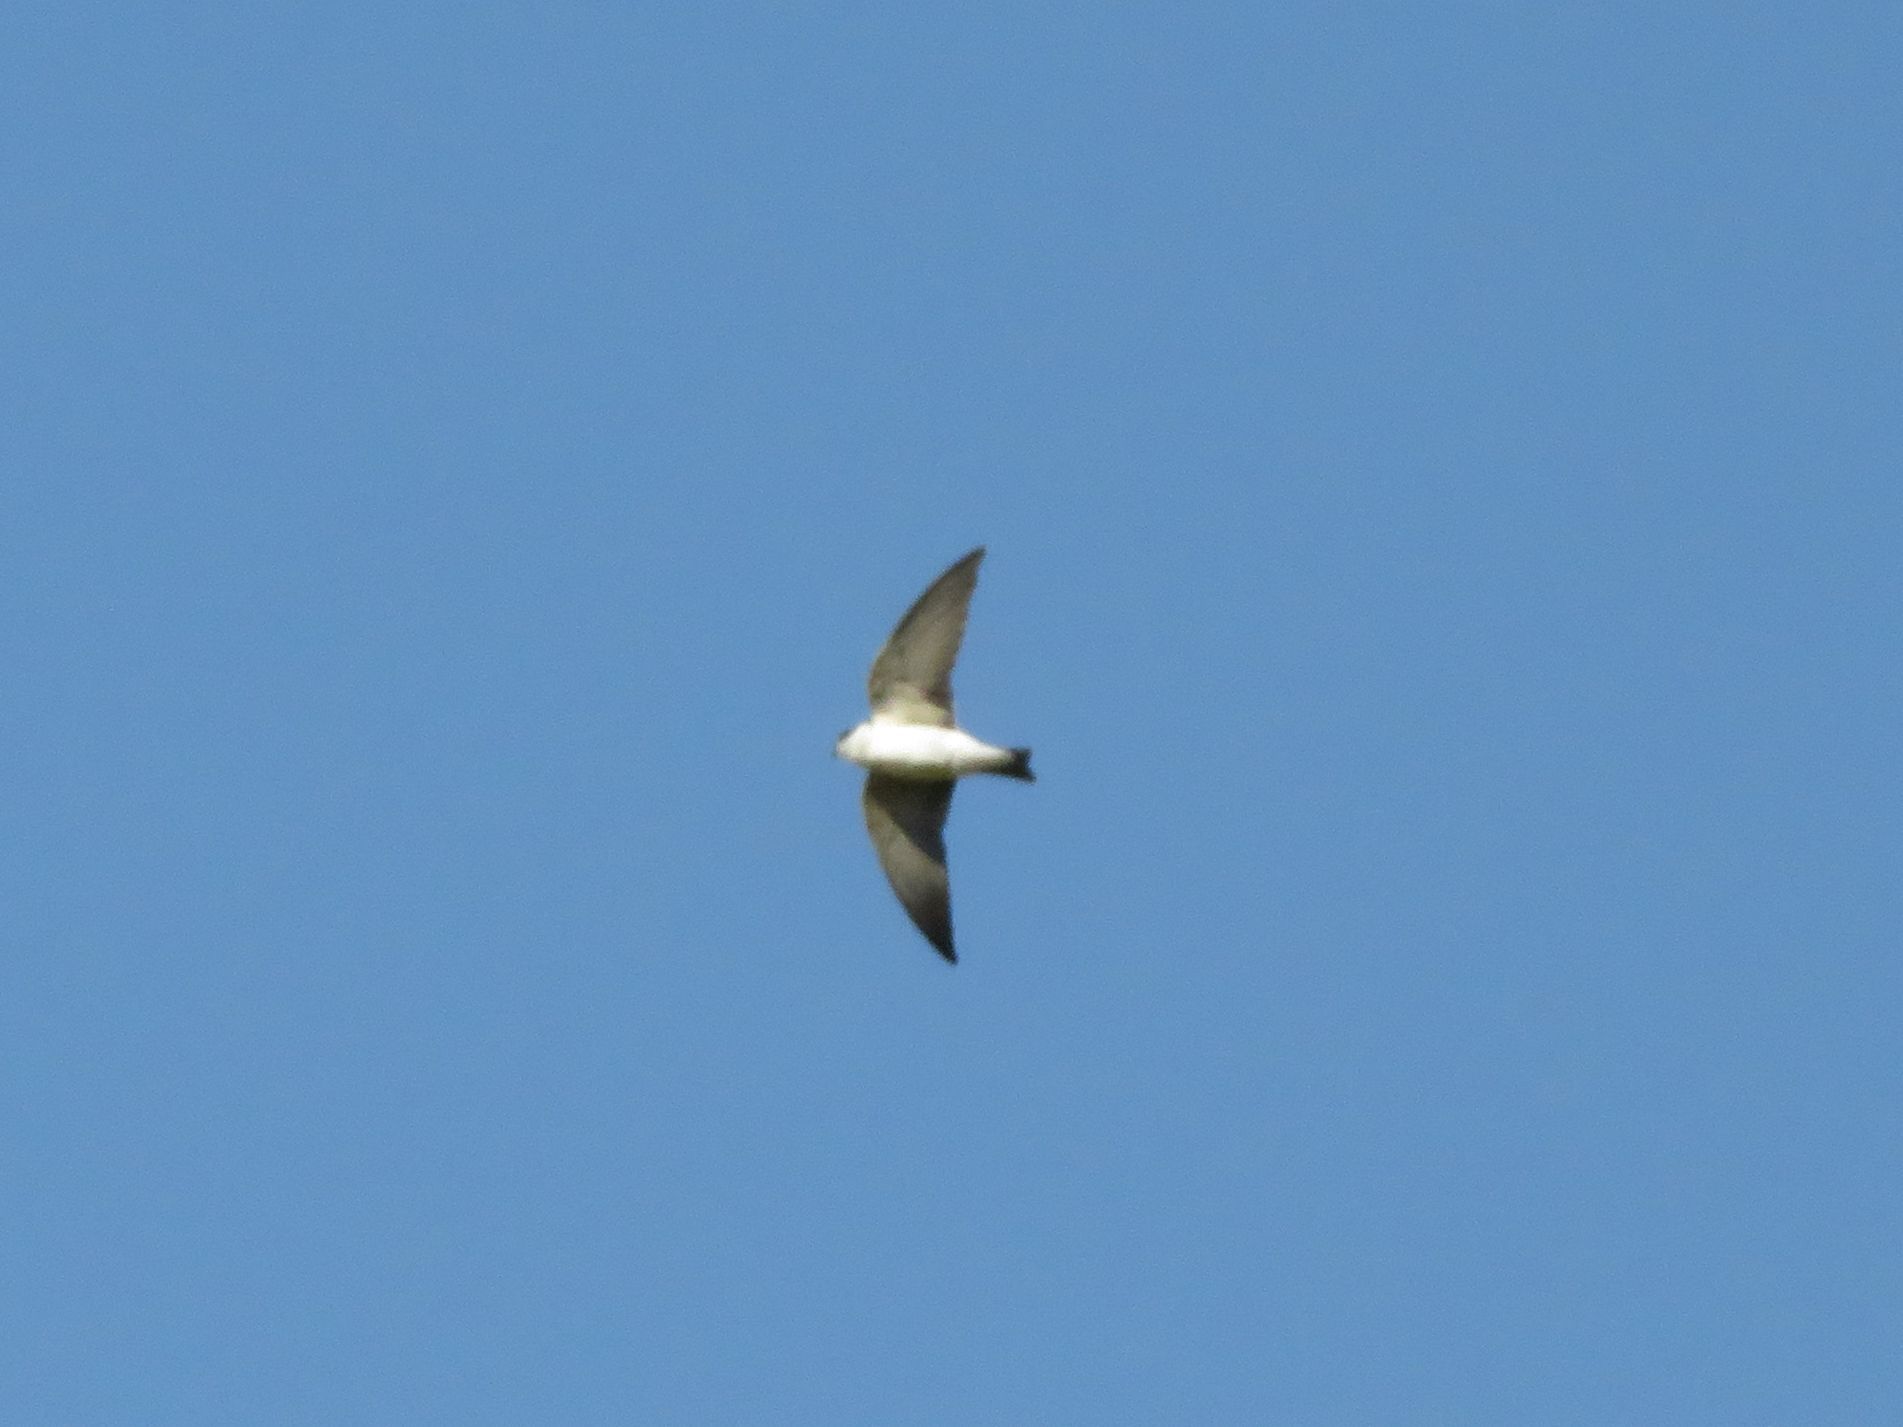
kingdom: Animalia
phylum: Chordata
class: Aves
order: Passeriformes
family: Hirundinidae
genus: Tachycineta
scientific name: Tachycineta leucopyga
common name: Chilean swallow
